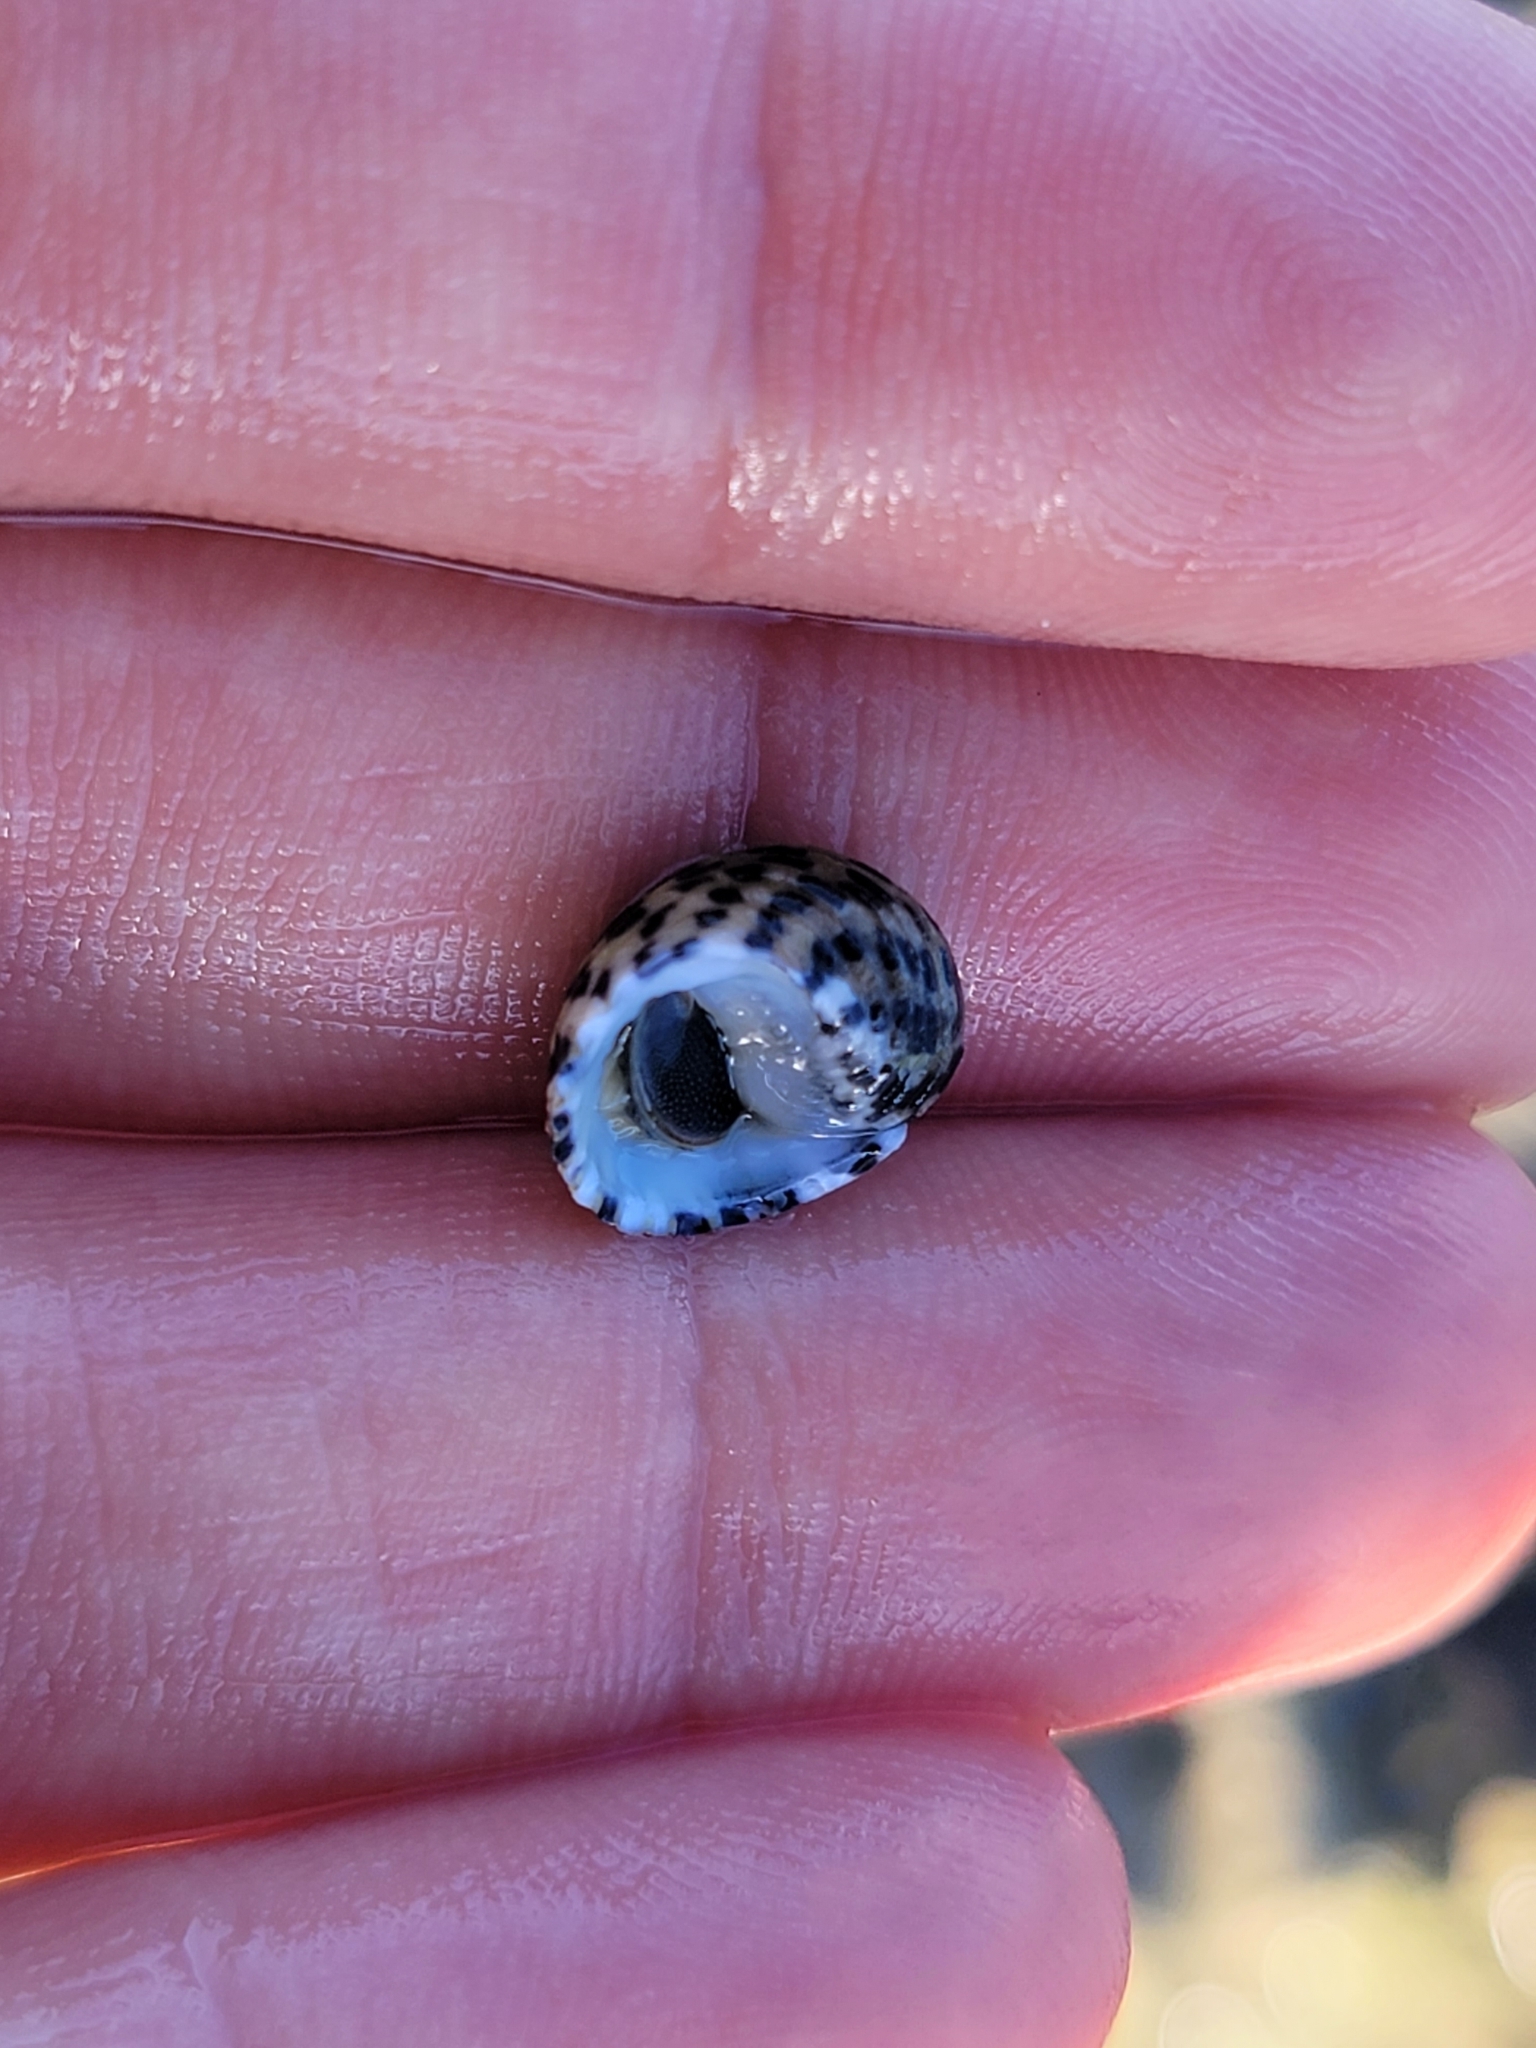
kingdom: Animalia
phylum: Mollusca
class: Gastropoda
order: Cycloneritida
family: Neritidae
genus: Nerita
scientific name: Nerita tessellata
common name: Checkered nerite
